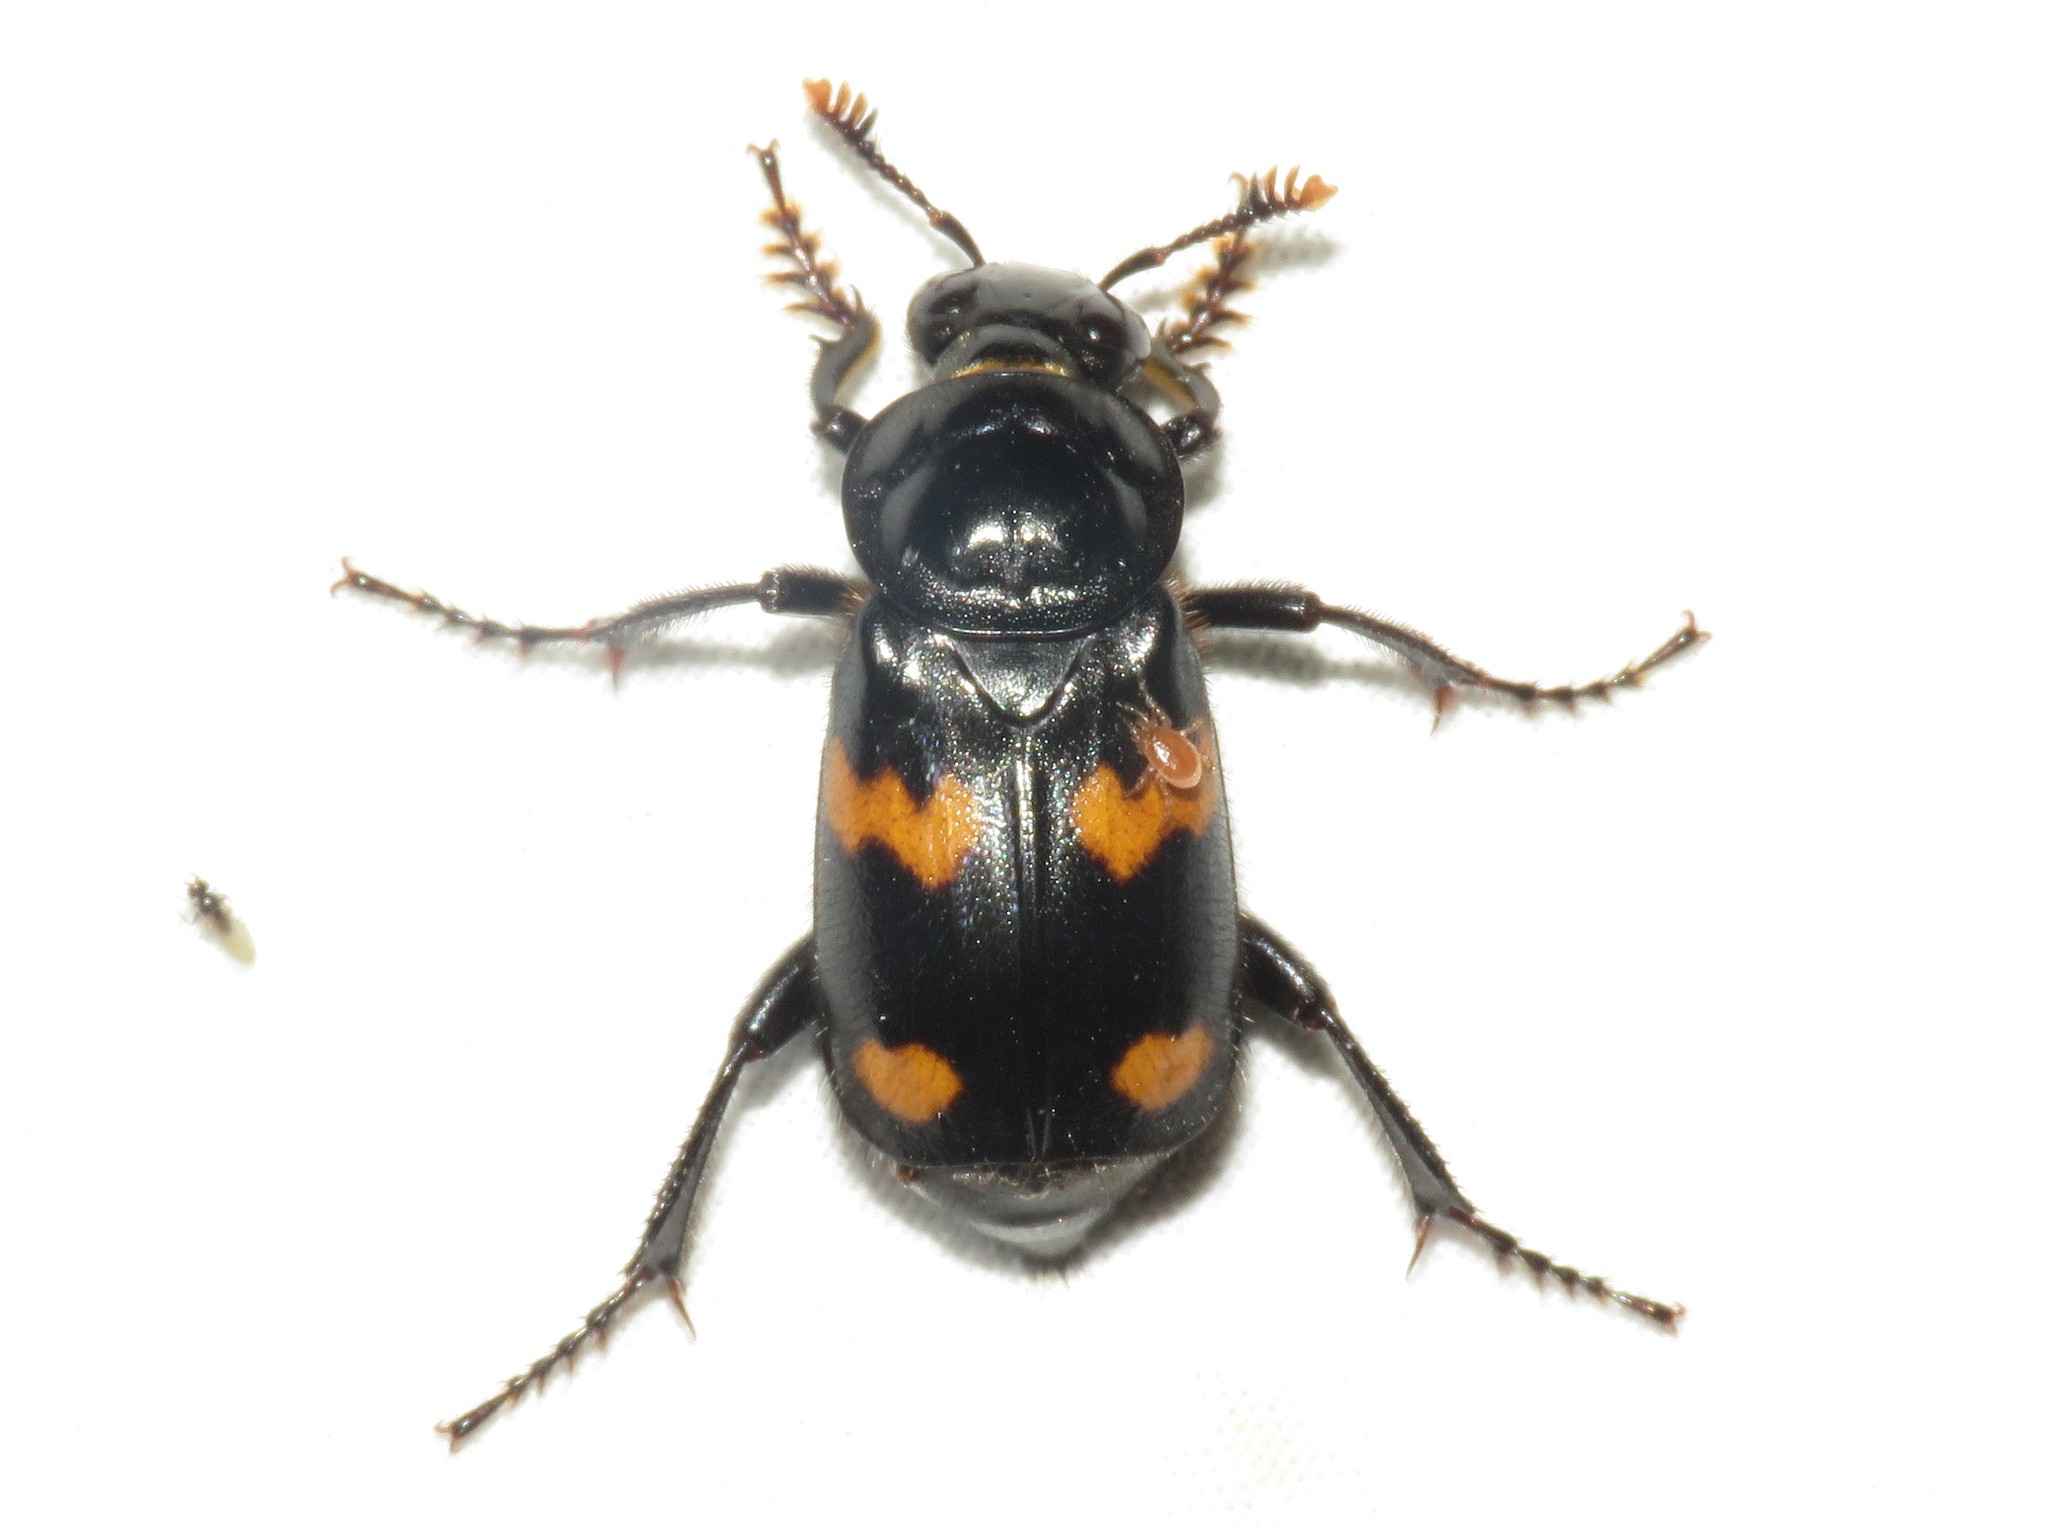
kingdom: Animalia
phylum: Arthropoda
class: Insecta
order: Coleoptera
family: Staphylinidae
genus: Nicrophorus
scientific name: Nicrophorus orbicollis
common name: Roundneck sexton beetle
